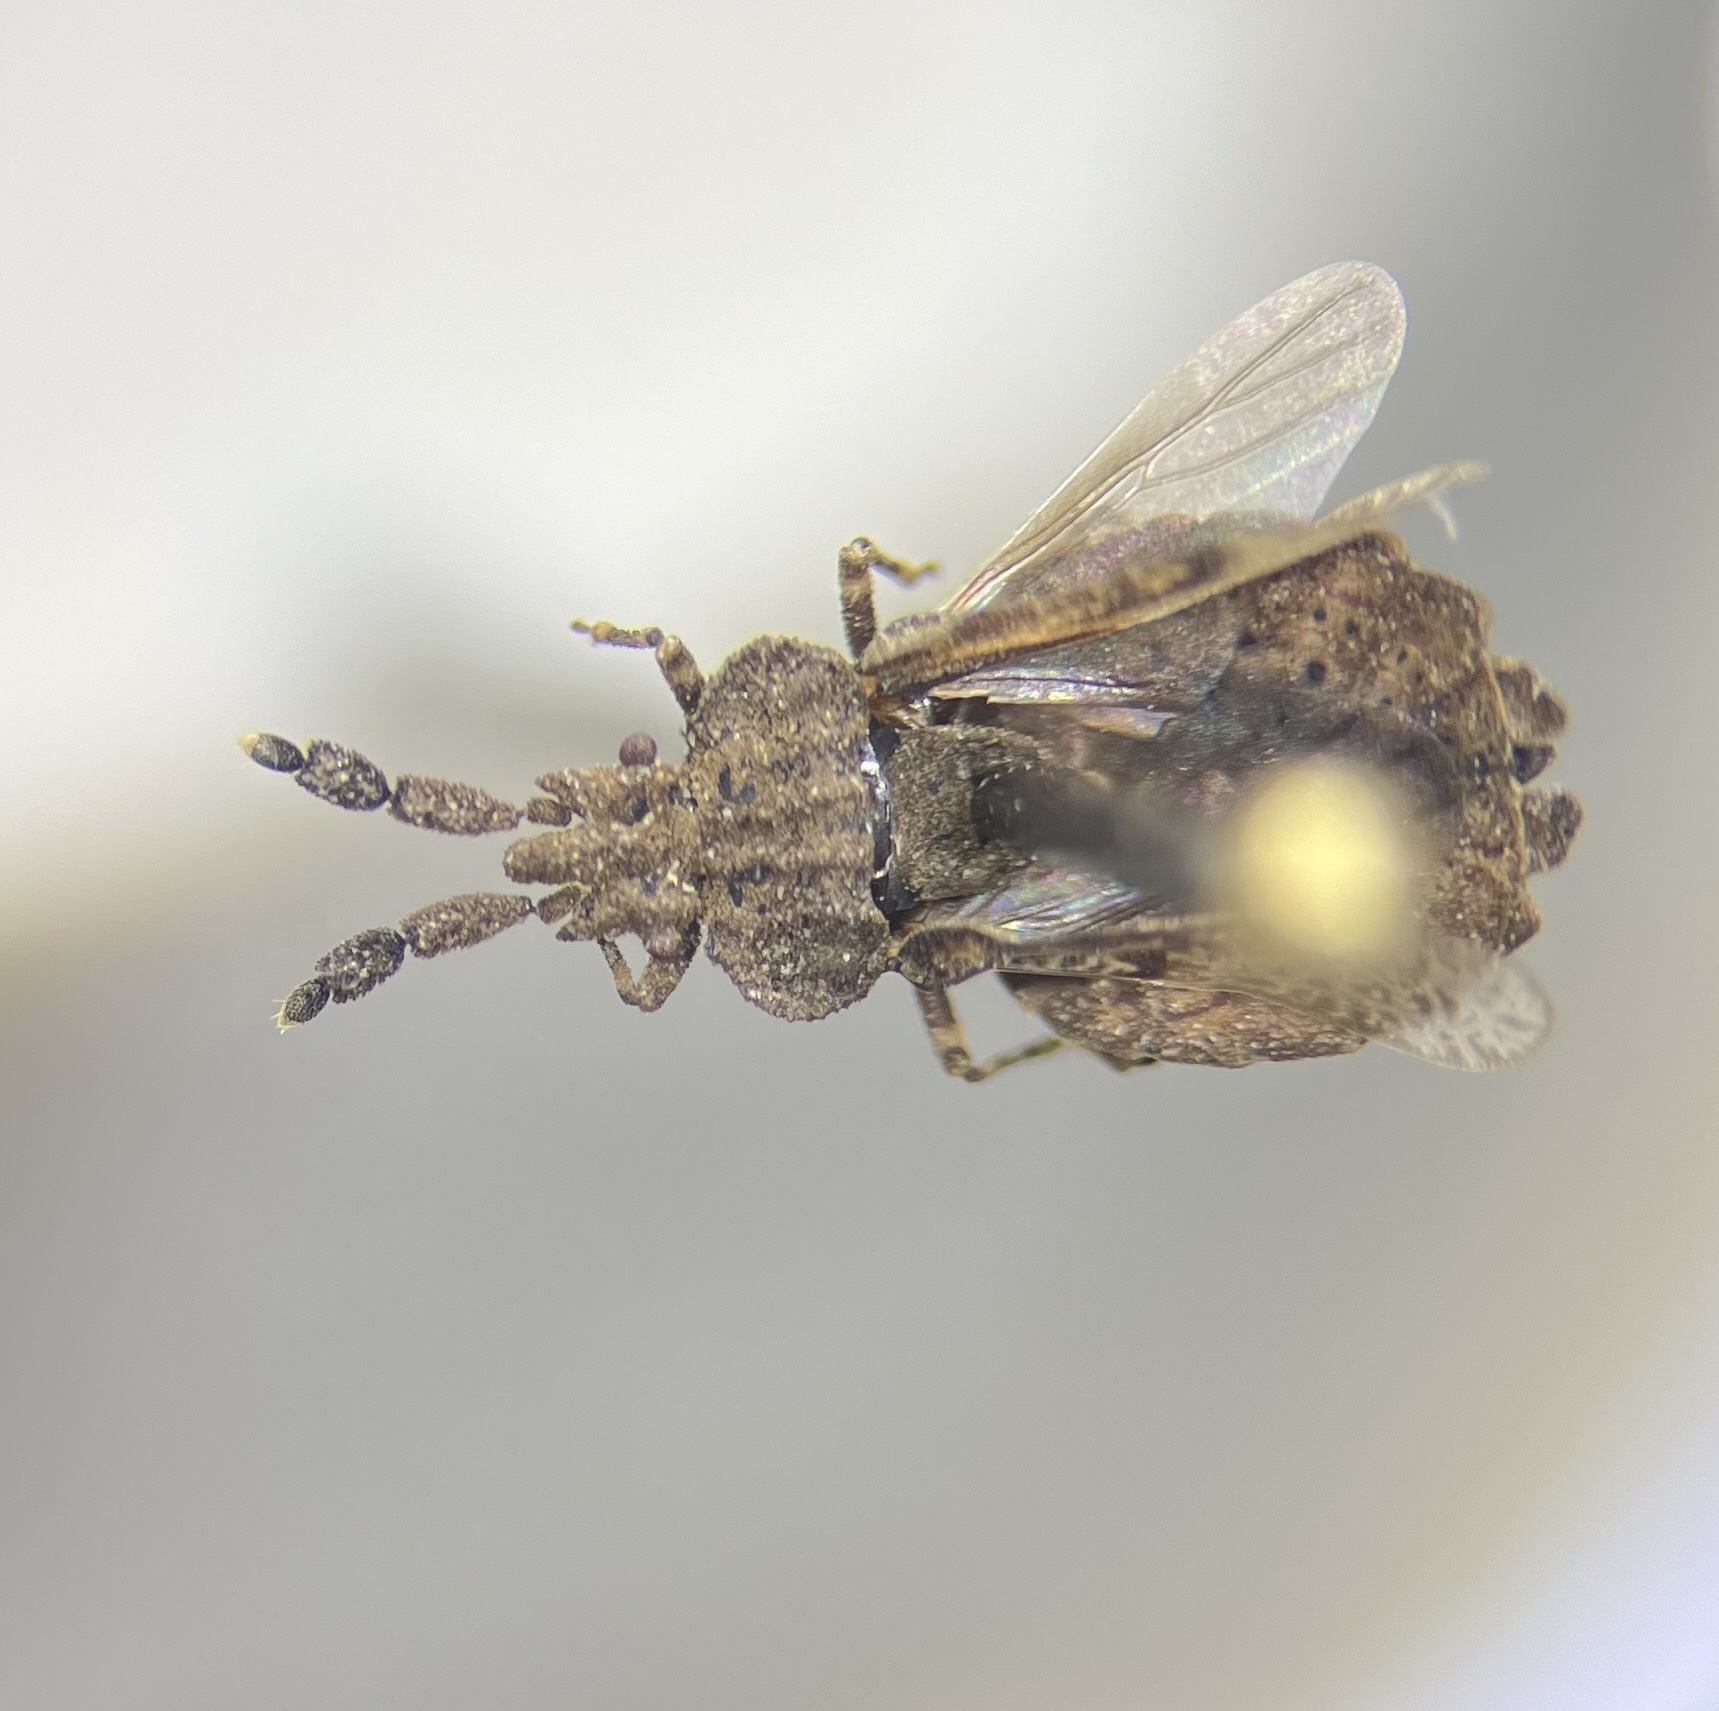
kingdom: Animalia
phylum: Arthropoda
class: Insecta
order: Hemiptera
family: Aradidae
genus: Aradus
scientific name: Aradus robustus
